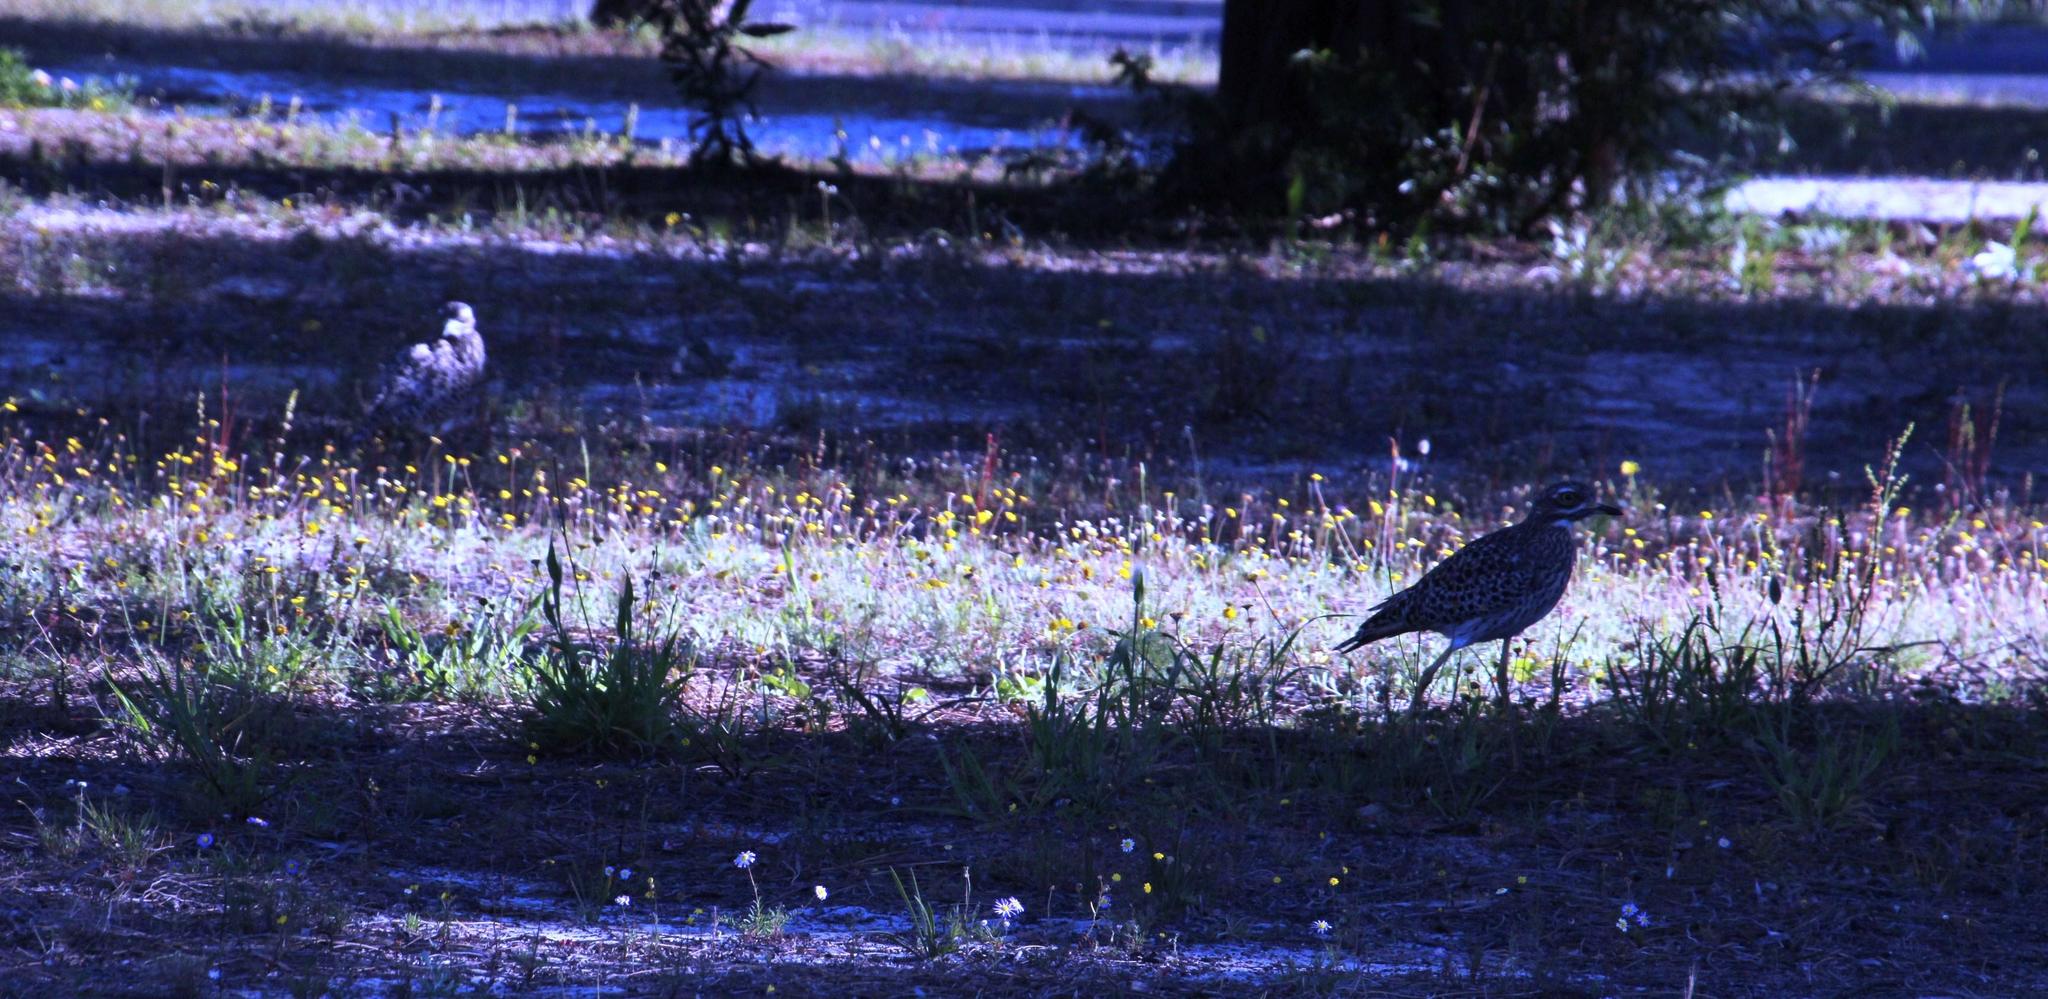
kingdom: Animalia
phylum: Chordata
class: Aves
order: Charadriiformes
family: Burhinidae
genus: Burhinus
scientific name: Burhinus capensis
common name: Spotted thick-knee
